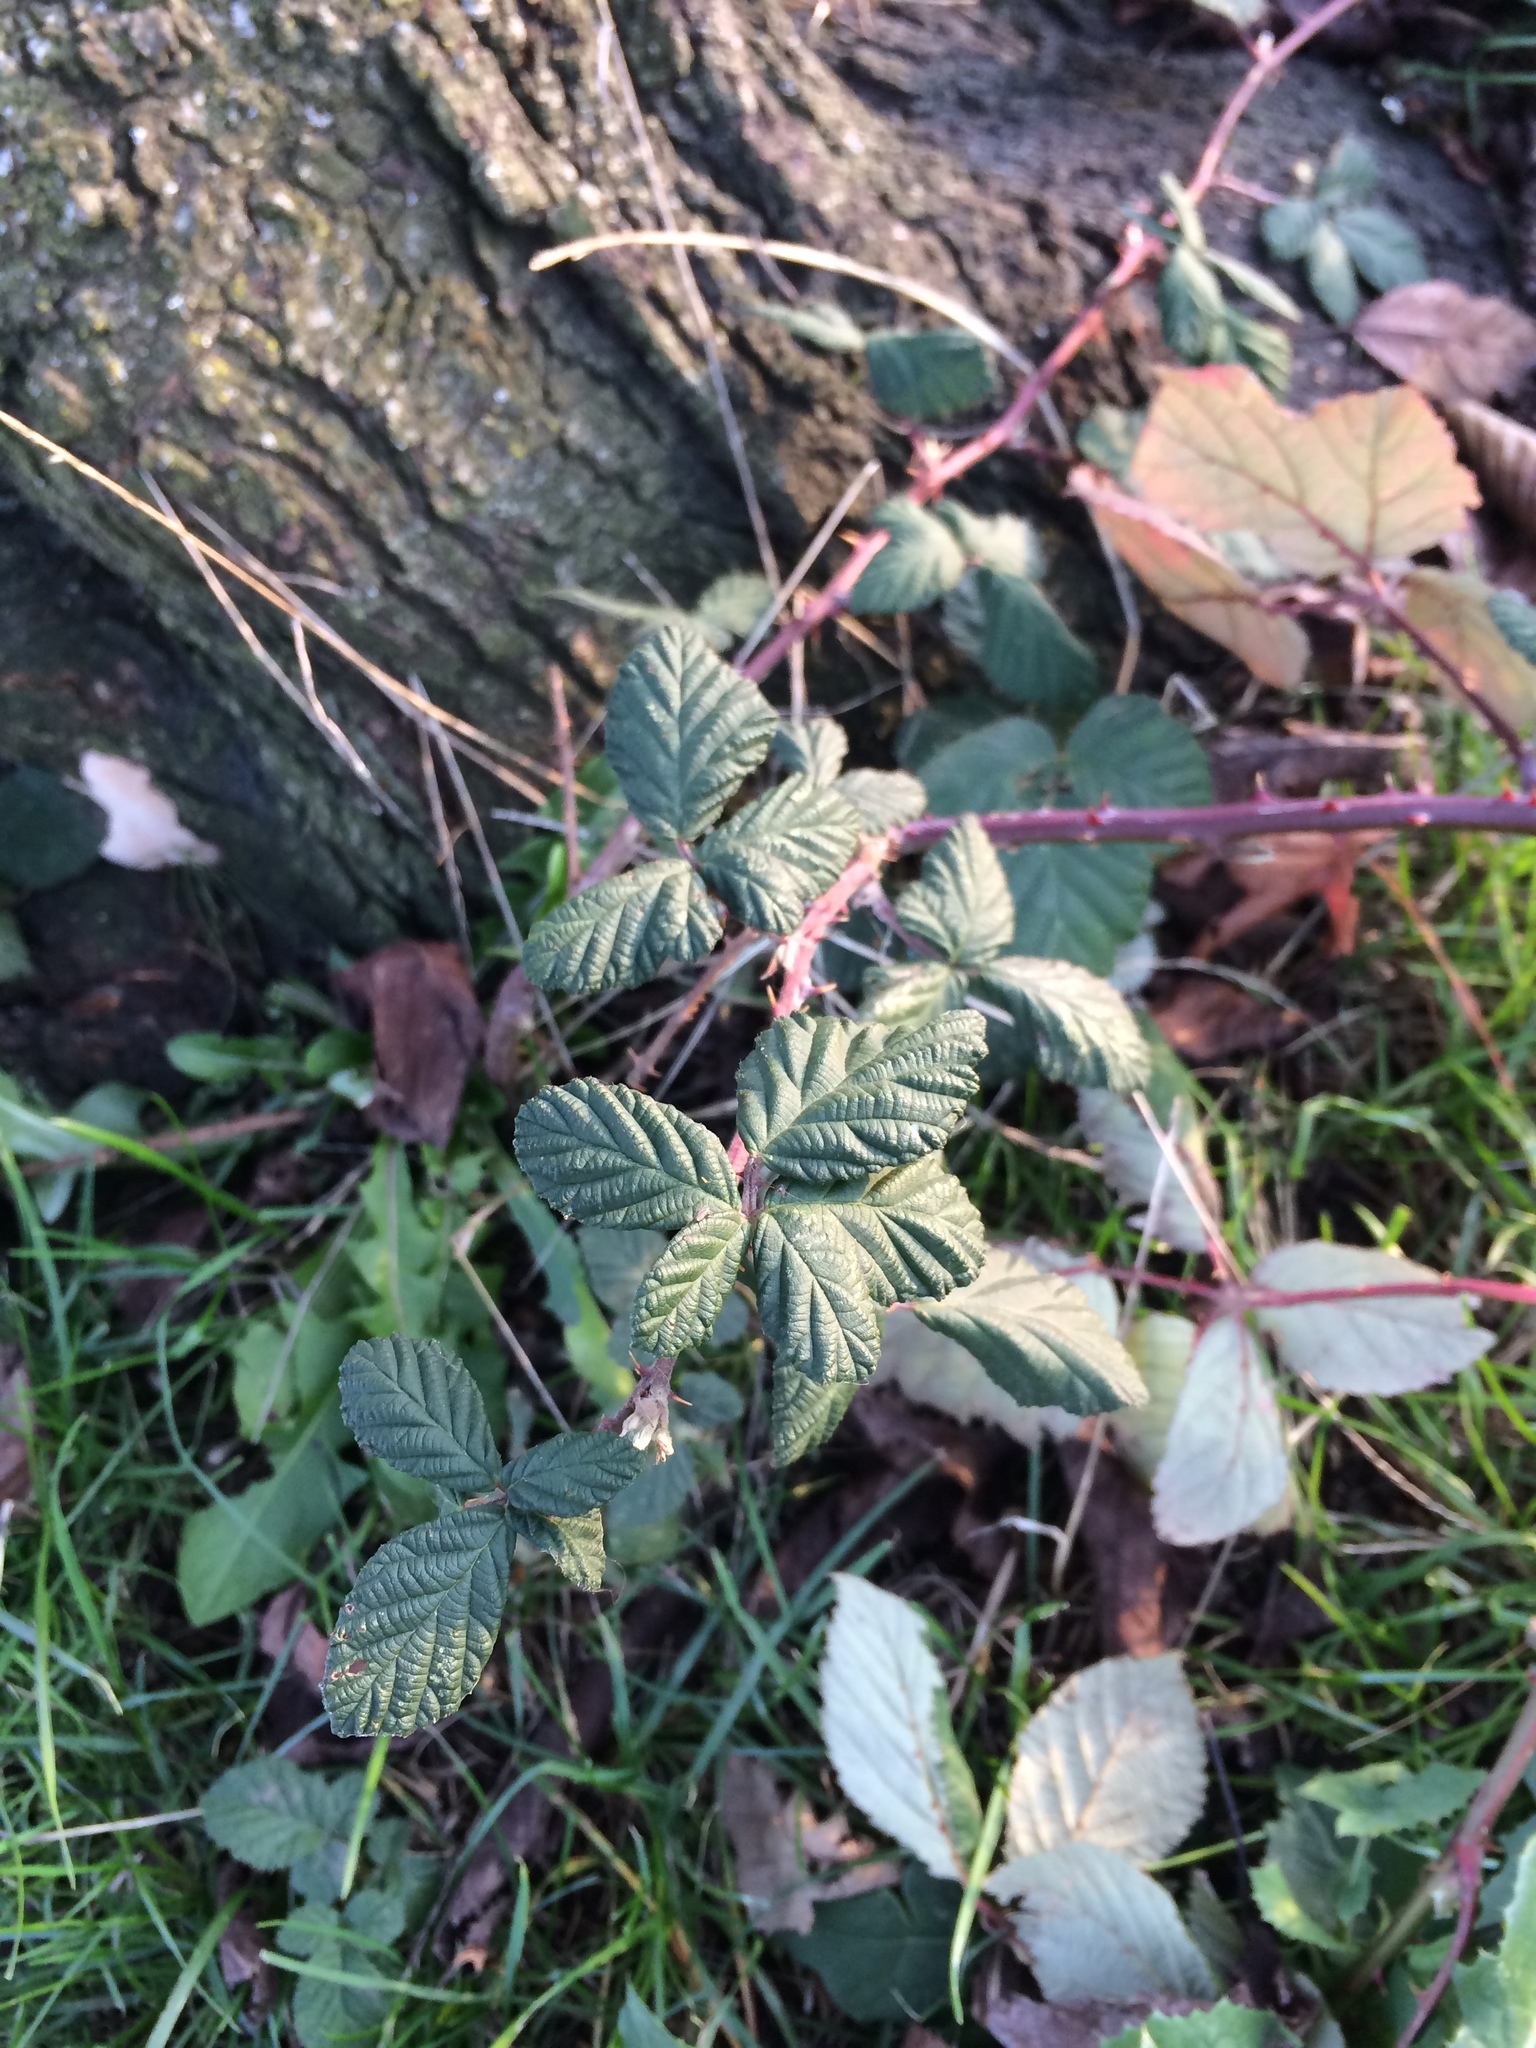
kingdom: Plantae
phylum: Tracheophyta
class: Magnoliopsida
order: Rosales
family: Rosaceae
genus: Rubus
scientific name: Rubus armeniacus
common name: Himalayan blackberry
